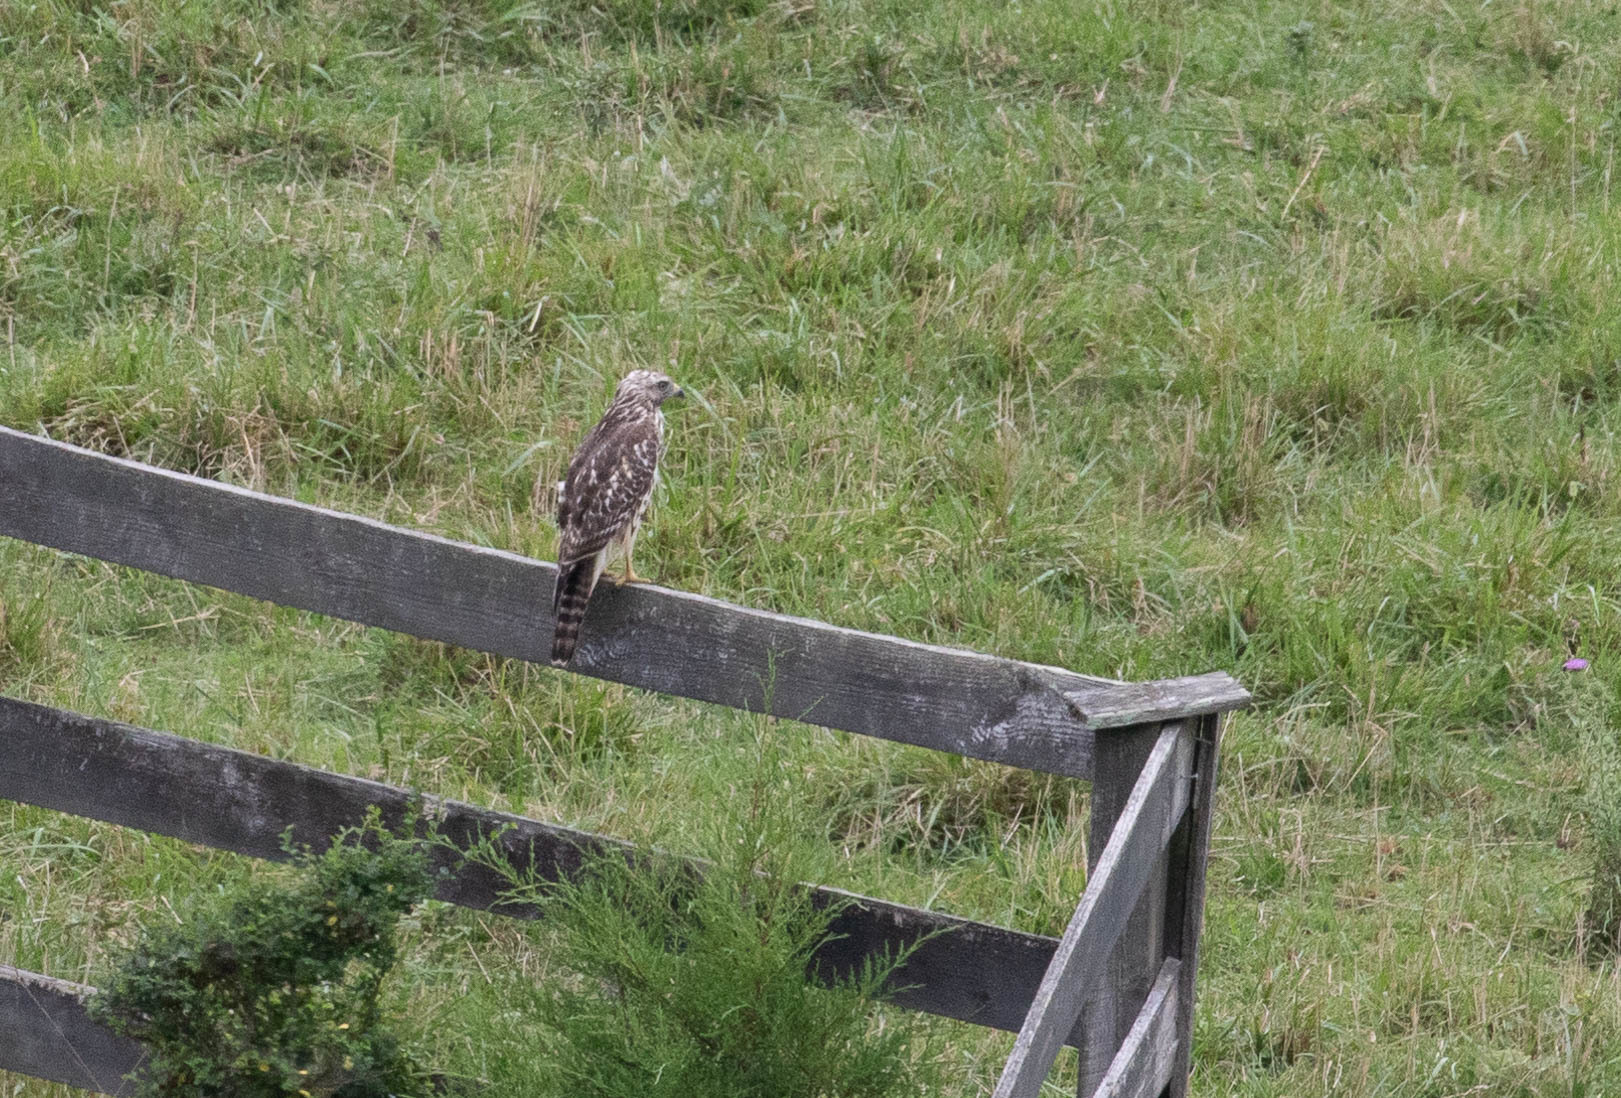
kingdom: Animalia
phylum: Chordata
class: Aves
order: Accipitriformes
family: Accipitridae
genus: Buteo
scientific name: Buteo lineatus
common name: Red-shouldered hawk
